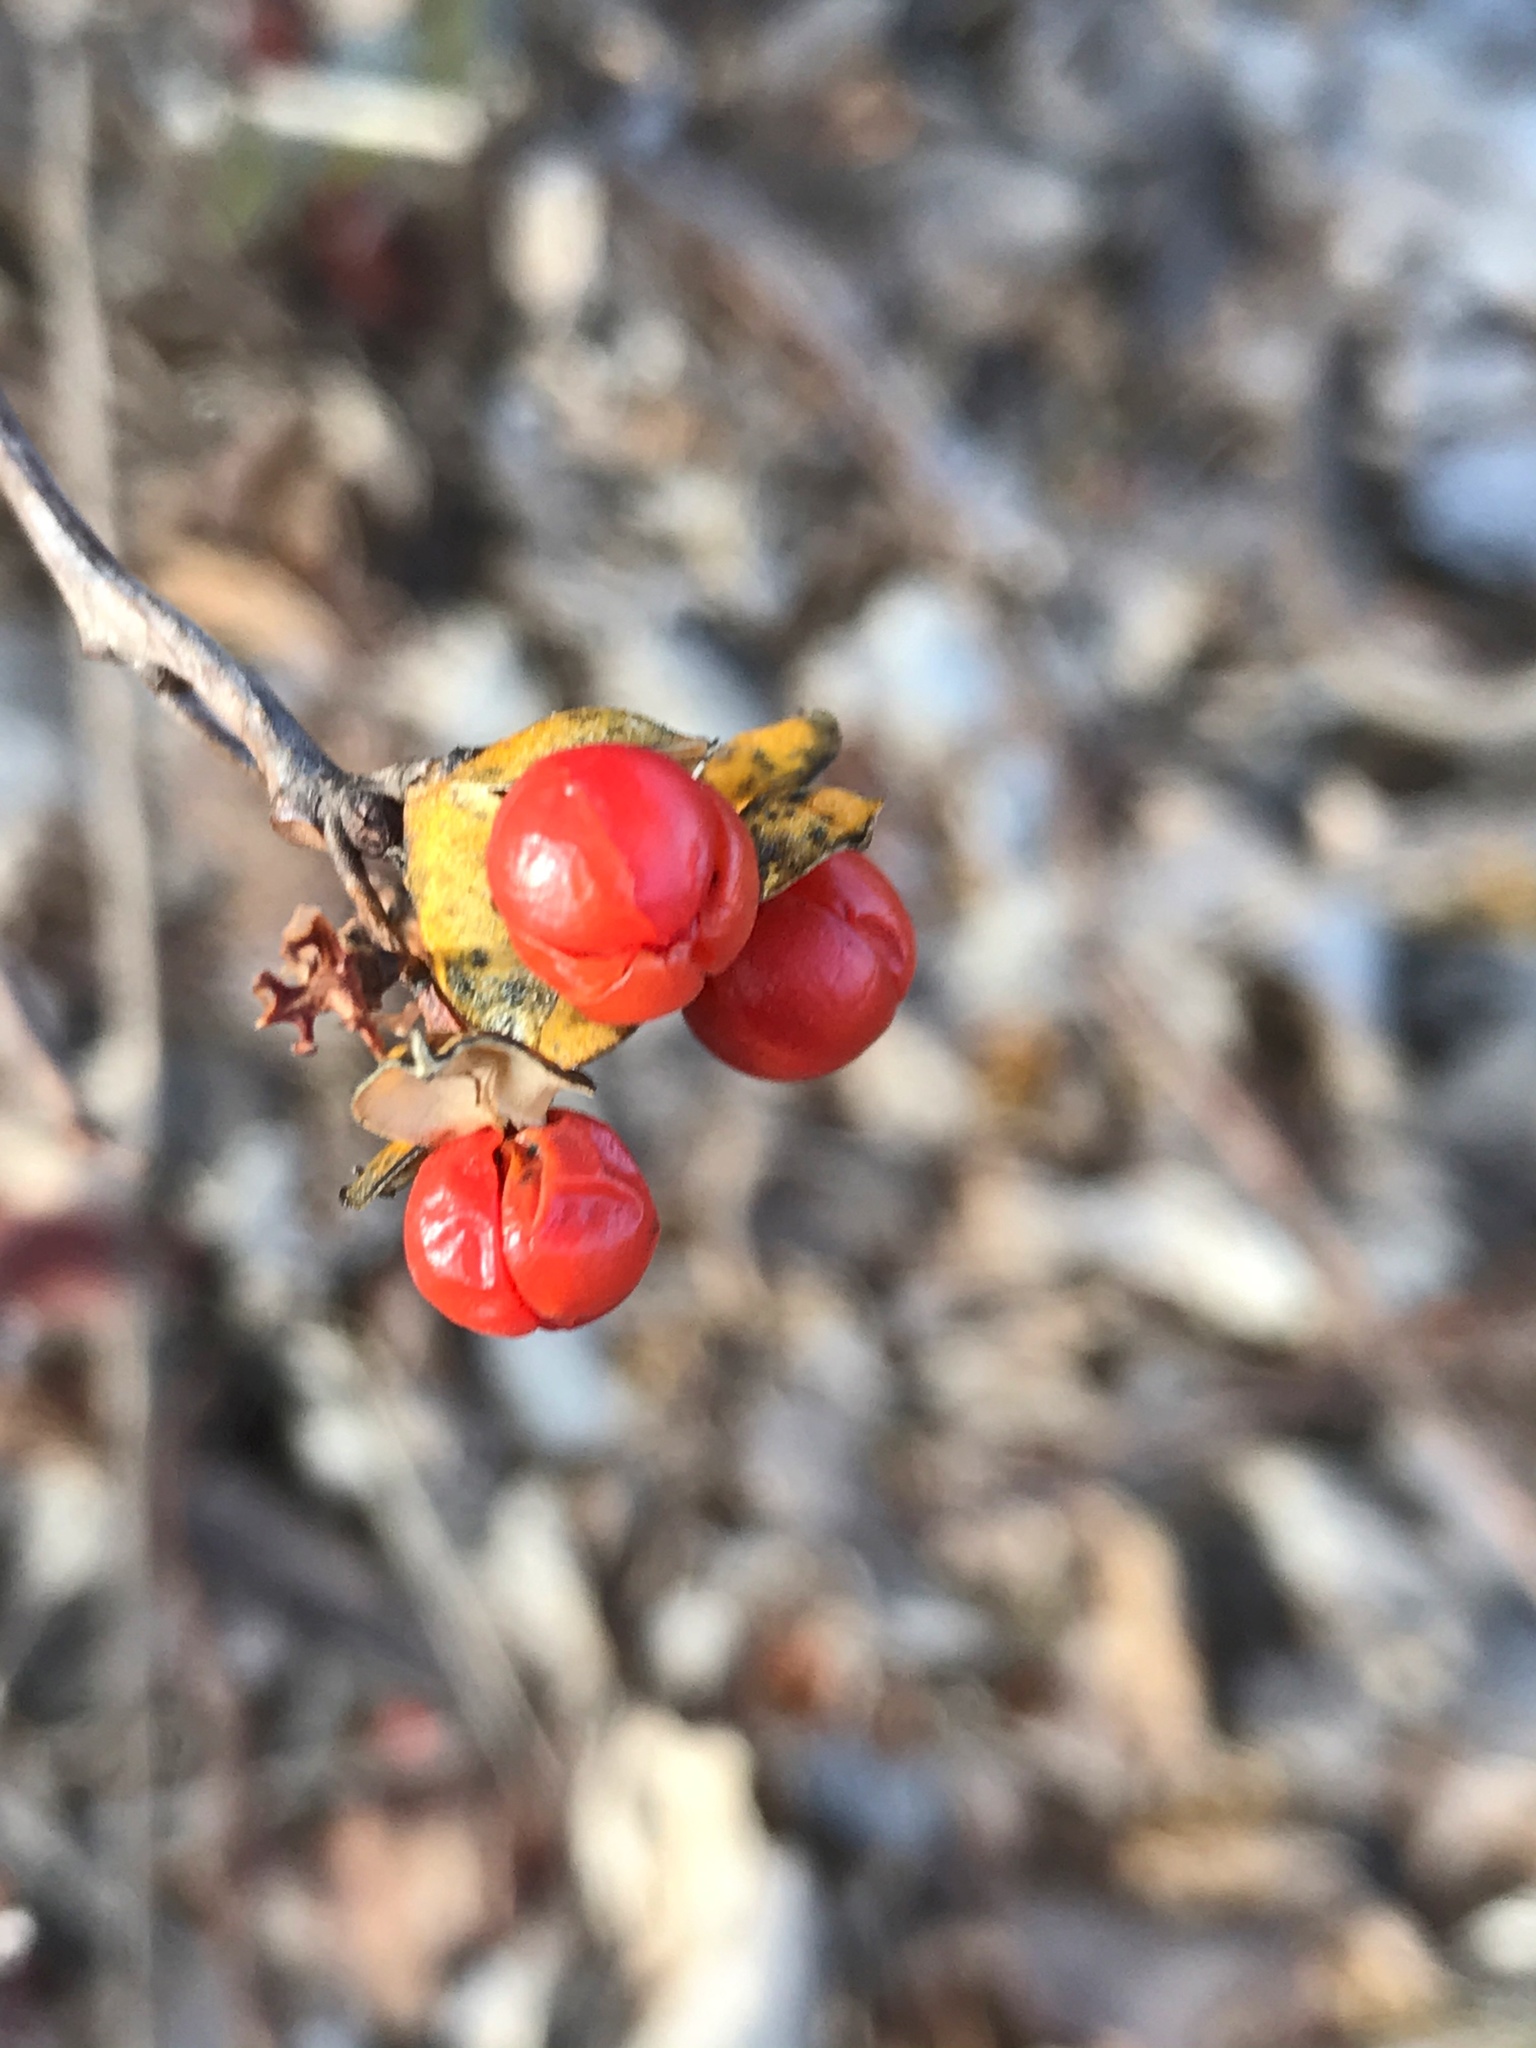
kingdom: Plantae
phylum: Tracheophyta
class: Magnoliopsida
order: Celastrales
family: Celastraceae
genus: Celastrus
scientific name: Celastrus orbiculatus
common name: Oriental bittersweet
